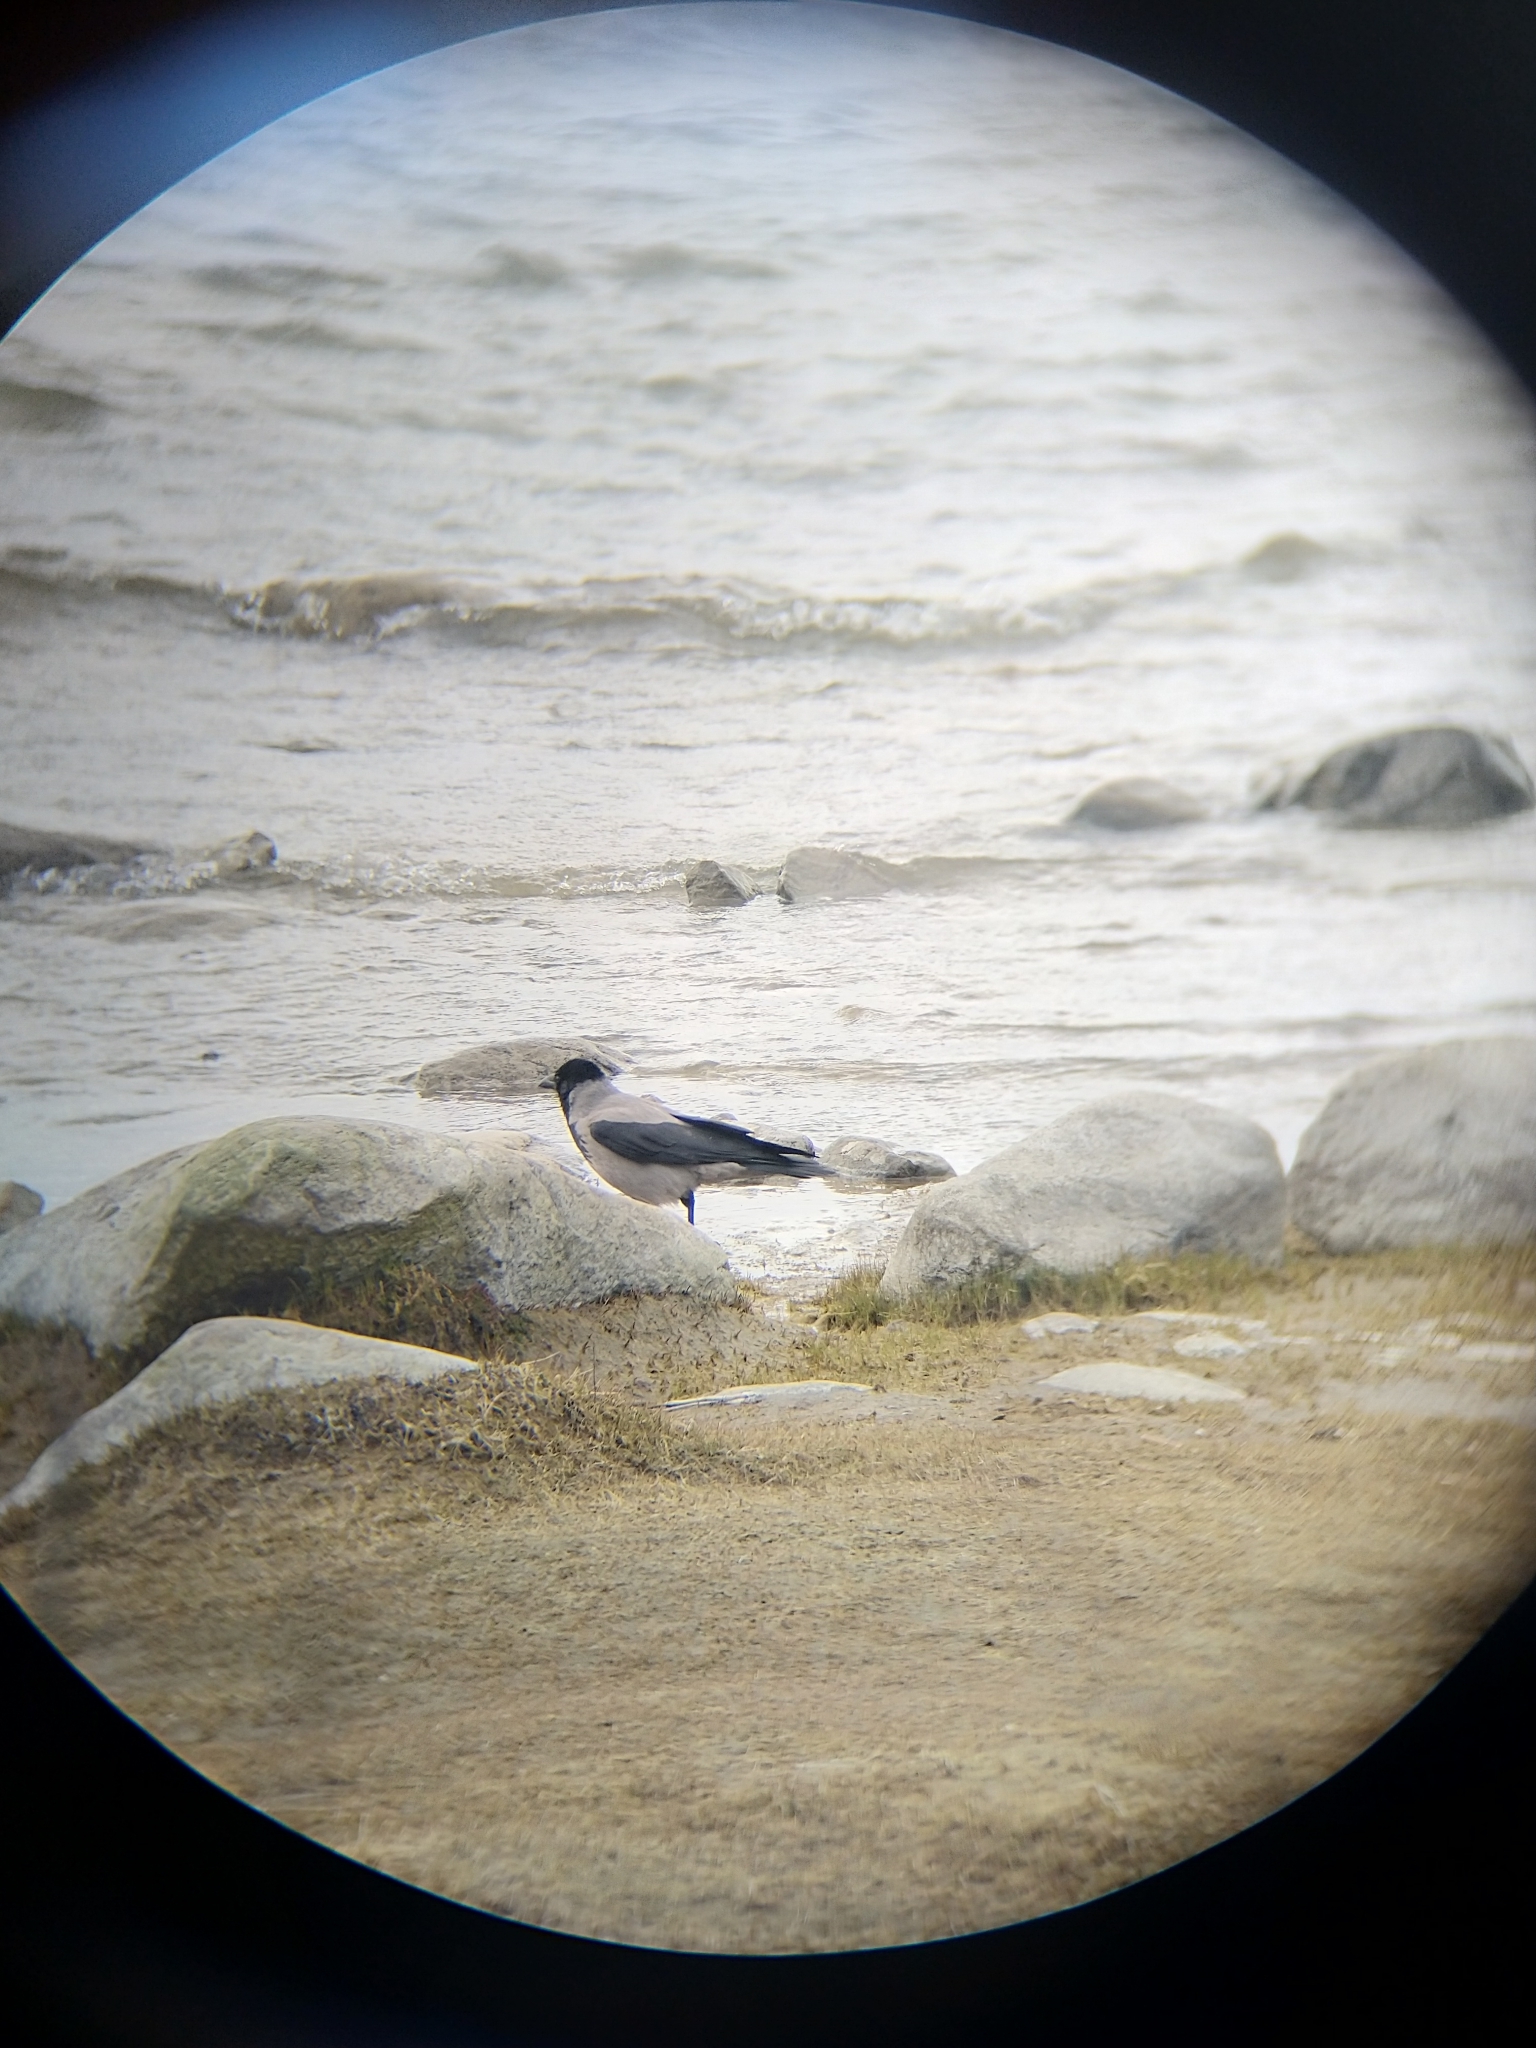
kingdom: Animalia
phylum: Chordata
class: Aves
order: Passeriformes
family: Corvidae
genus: Corvus
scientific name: Corvus cornix
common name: Hooded crow
